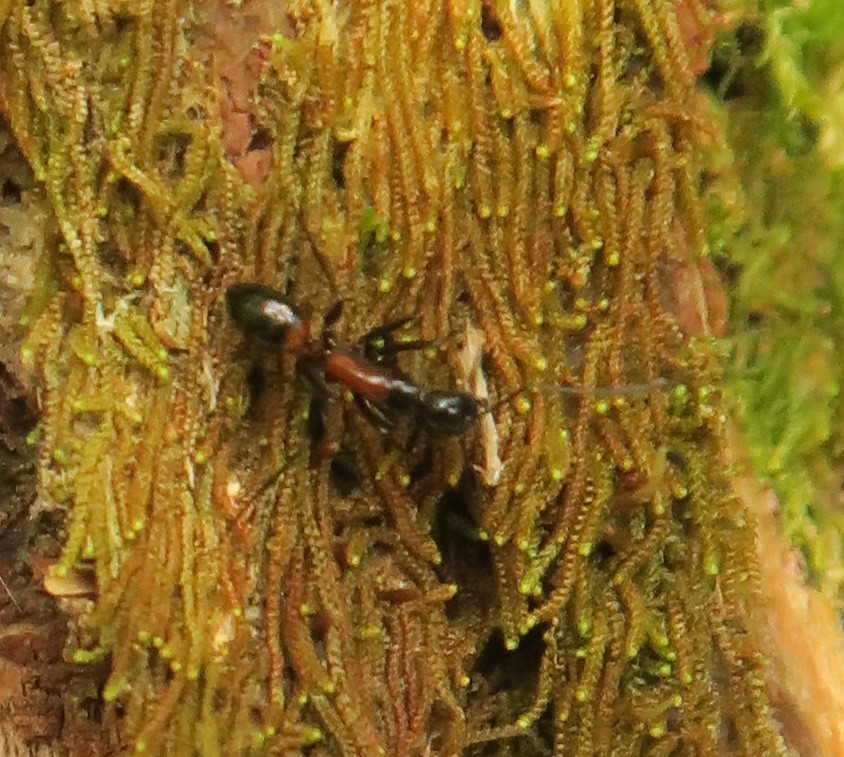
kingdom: Animalia
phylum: Arthropoda
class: Insecta
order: Hymenoptera
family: Formicidae
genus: Camponotus
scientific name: Camponotus hemichlaena
